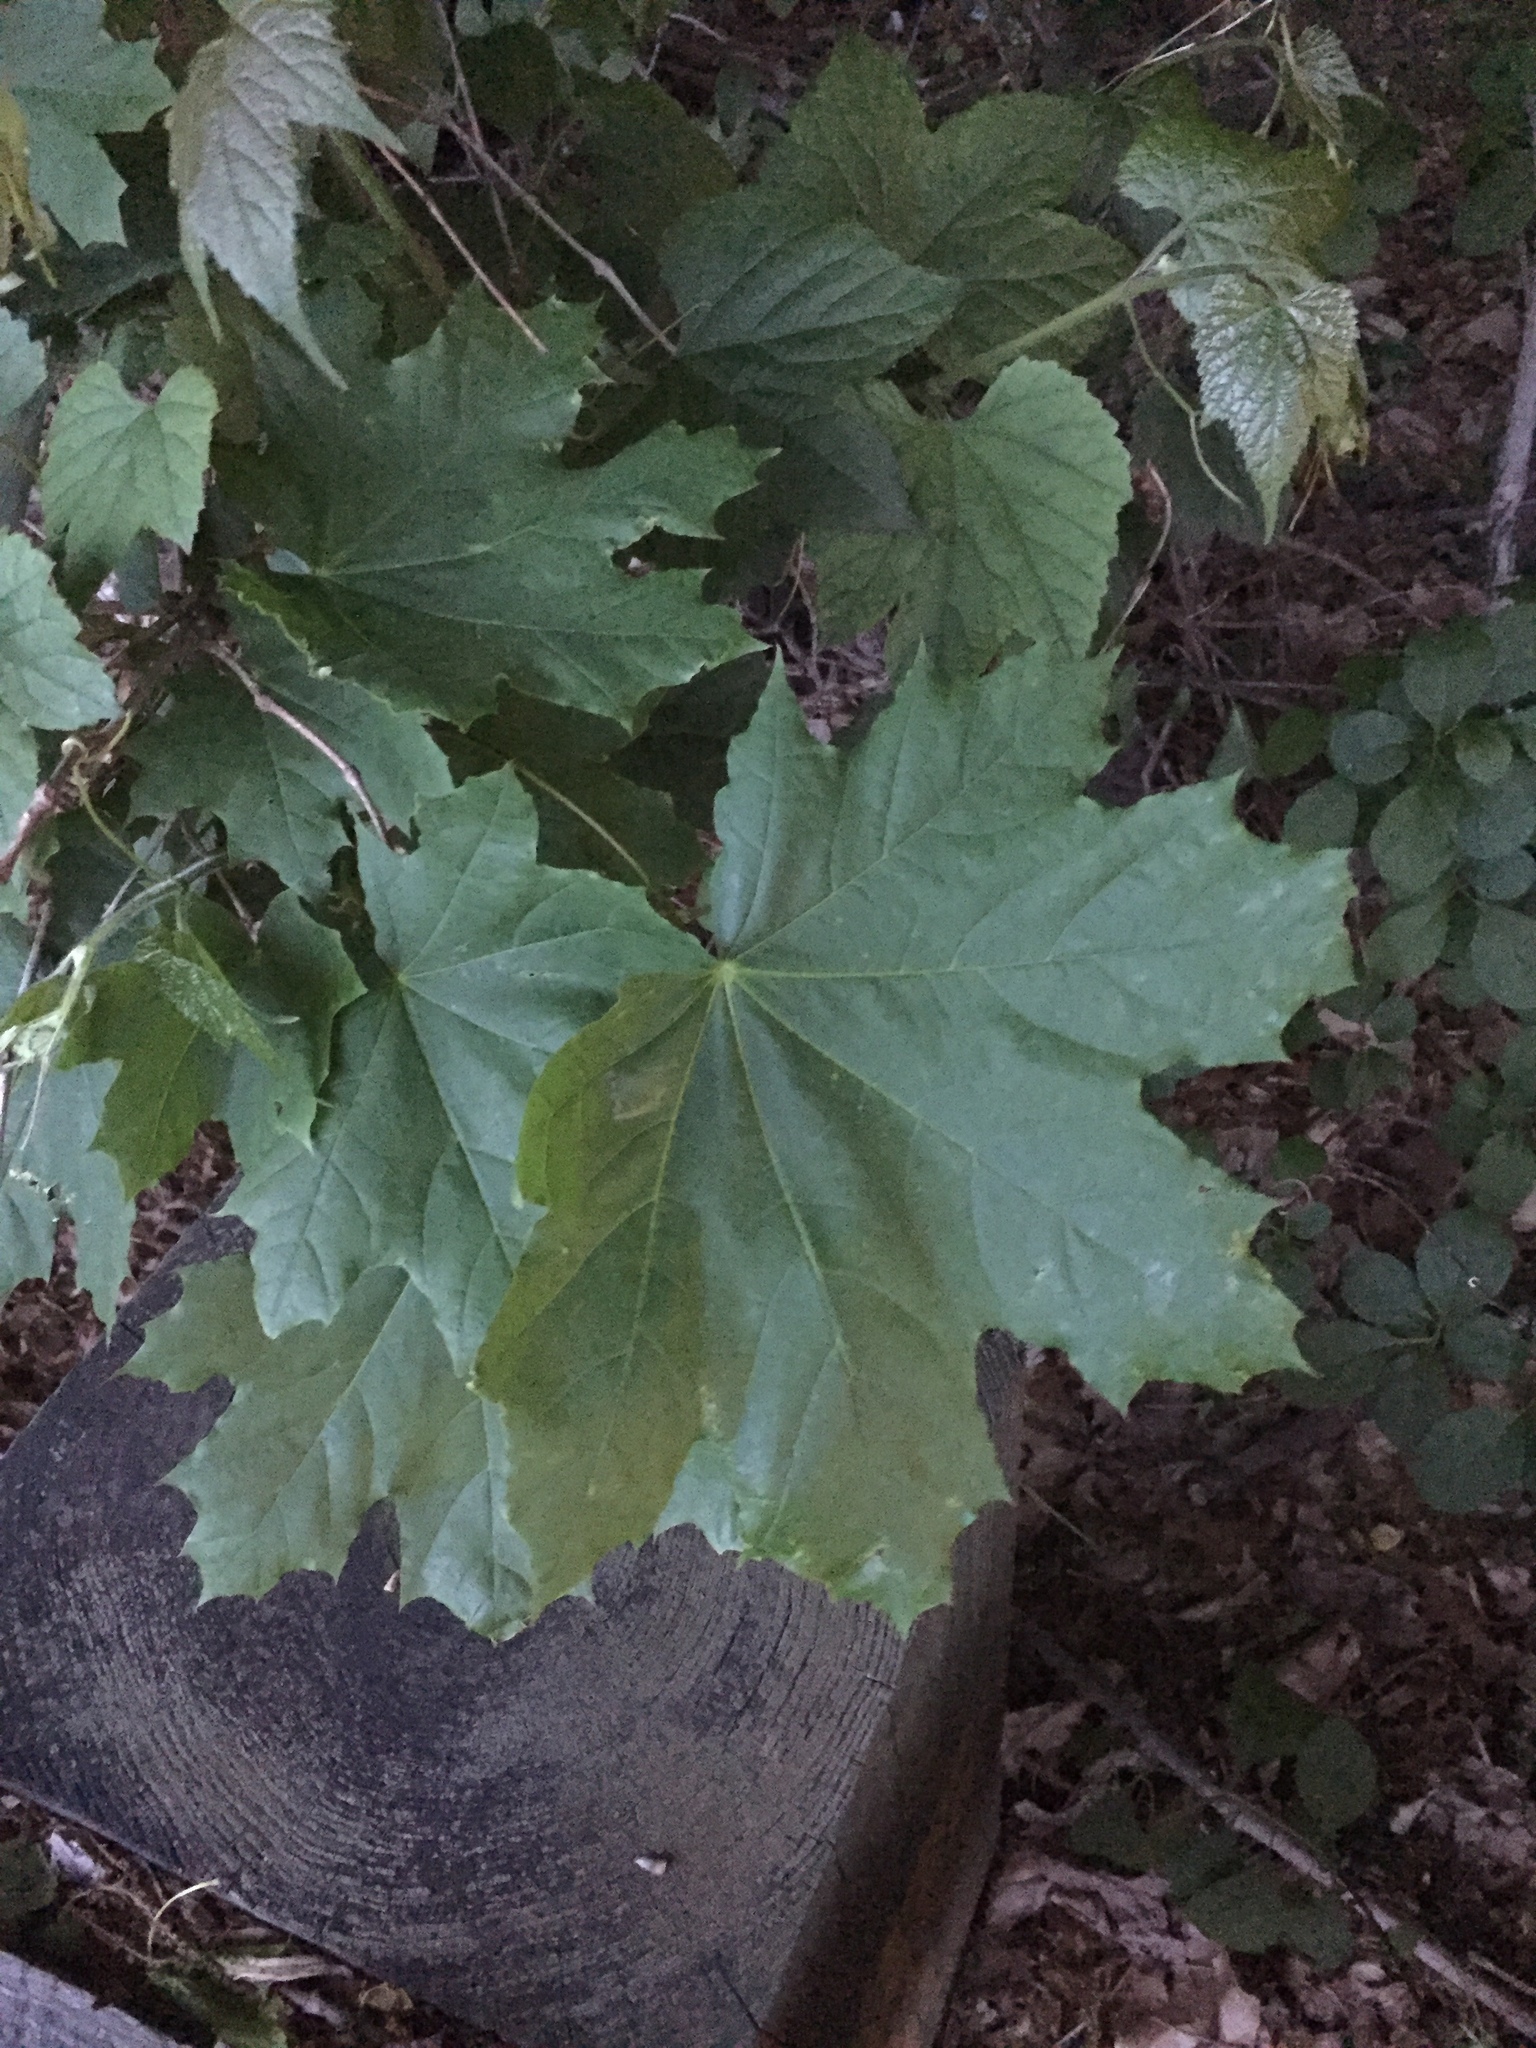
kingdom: Plantae
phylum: Tracheophyta
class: Magnoliopsida
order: Sapindales
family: Sapindaceae
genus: Acer
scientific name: Acer platanoides
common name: Norway maple
